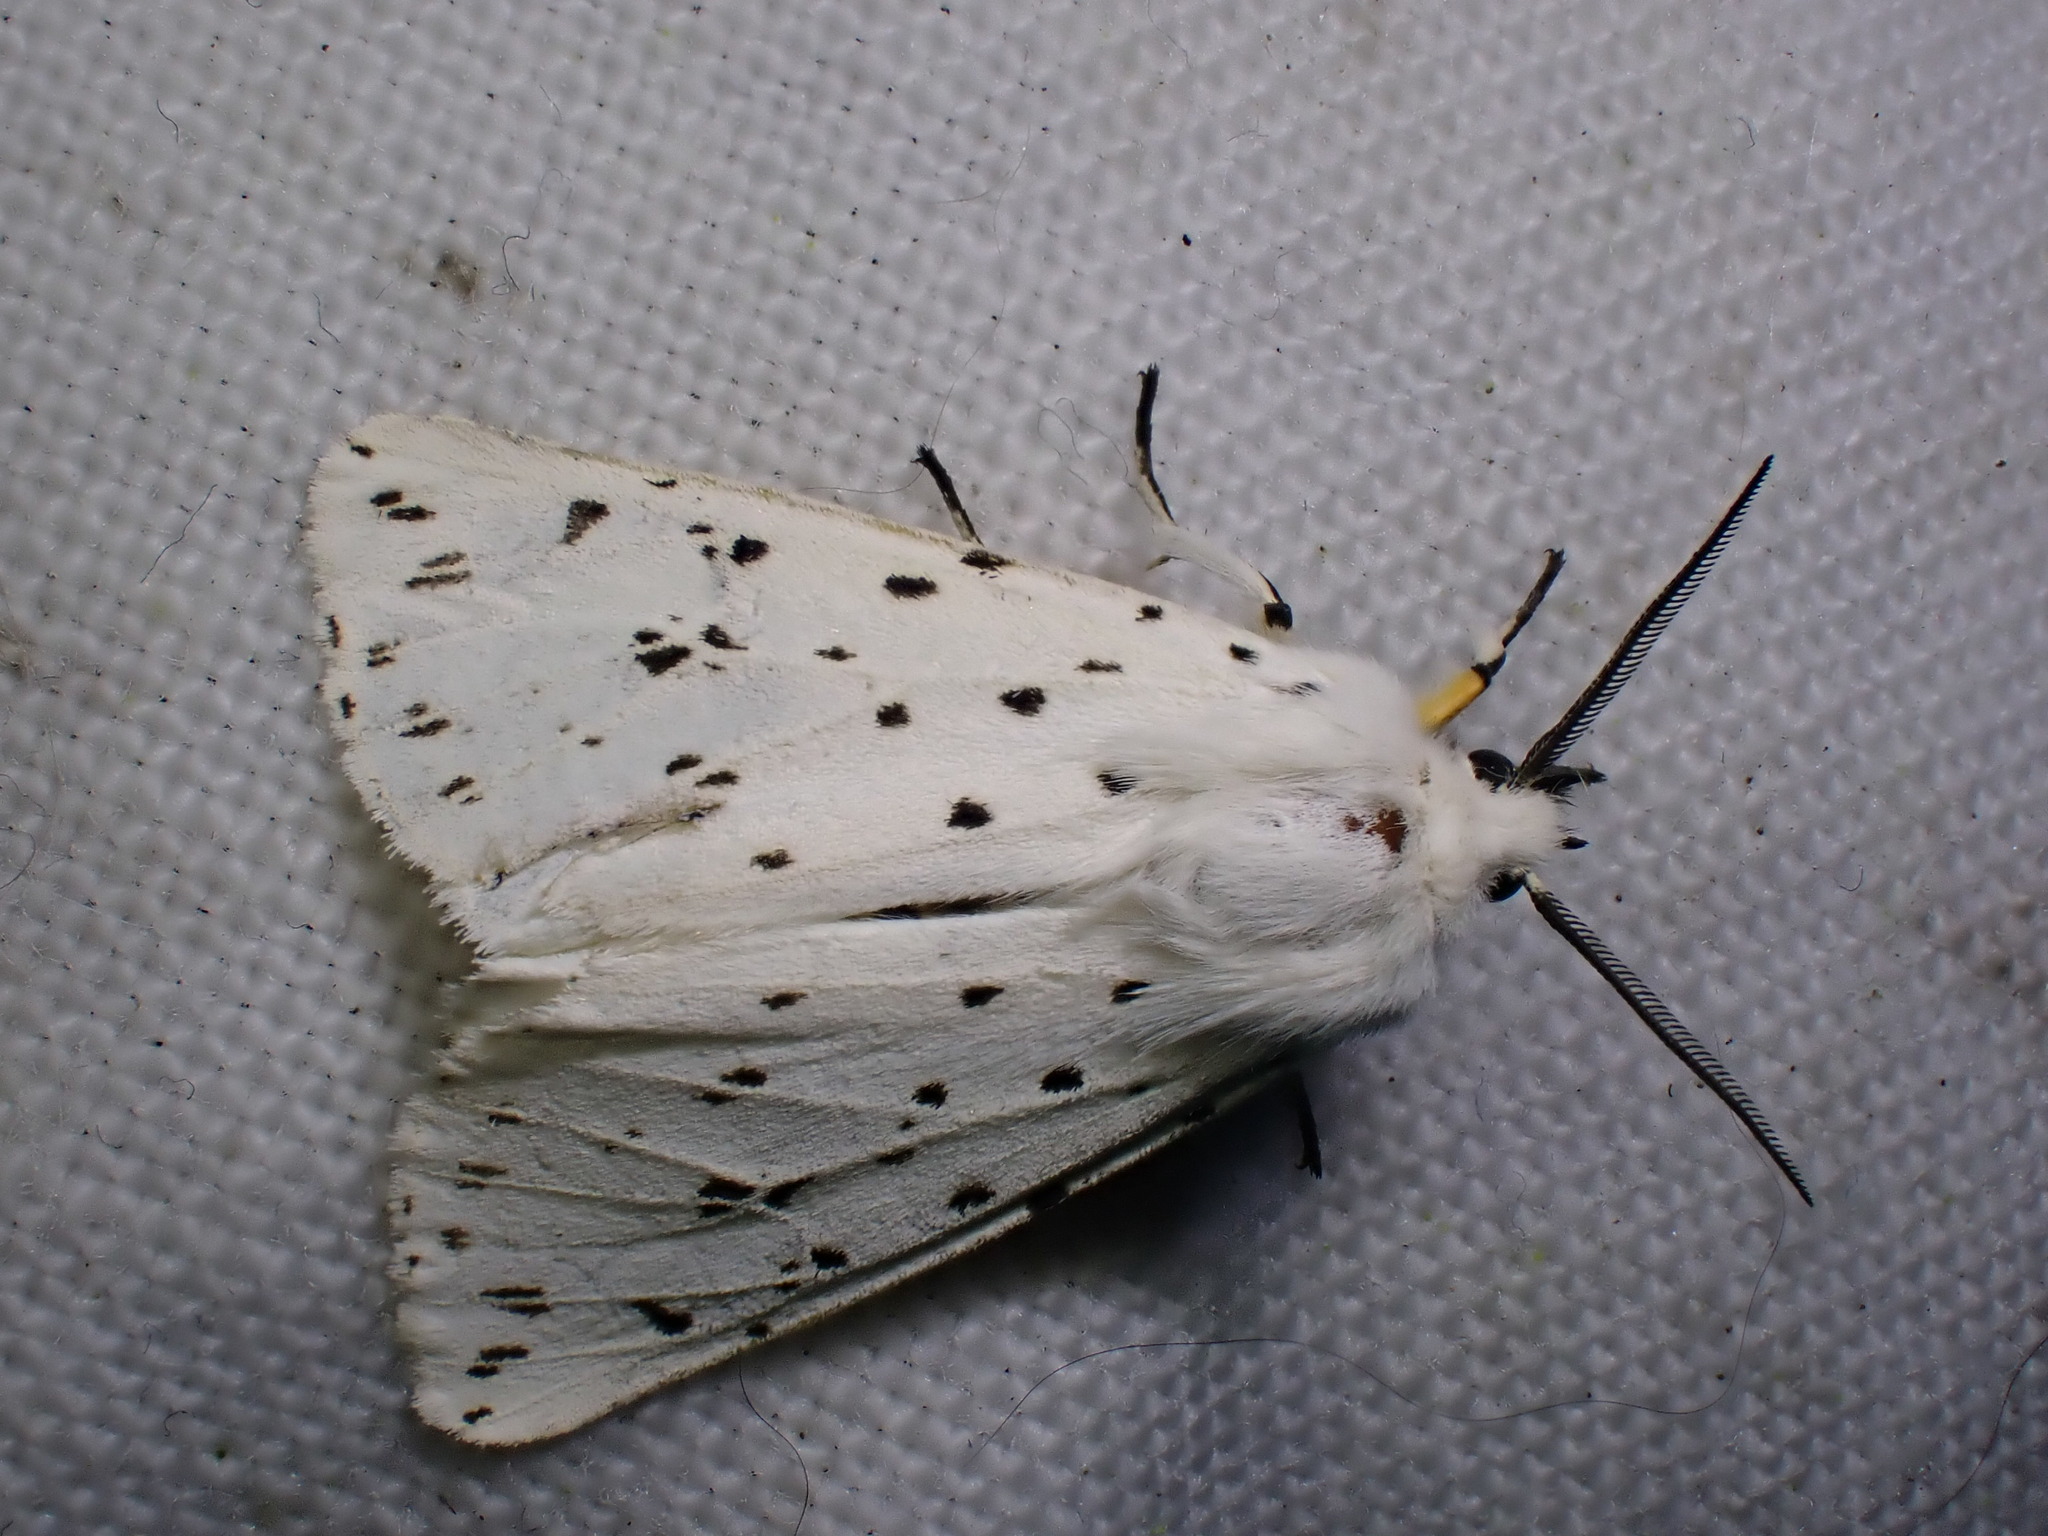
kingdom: Animalia
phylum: Arthropoda
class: Insecta
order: Lepidoptera
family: Erebidae
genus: Spilosoma
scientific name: Spilosoma lubricipeda
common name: White ermine
